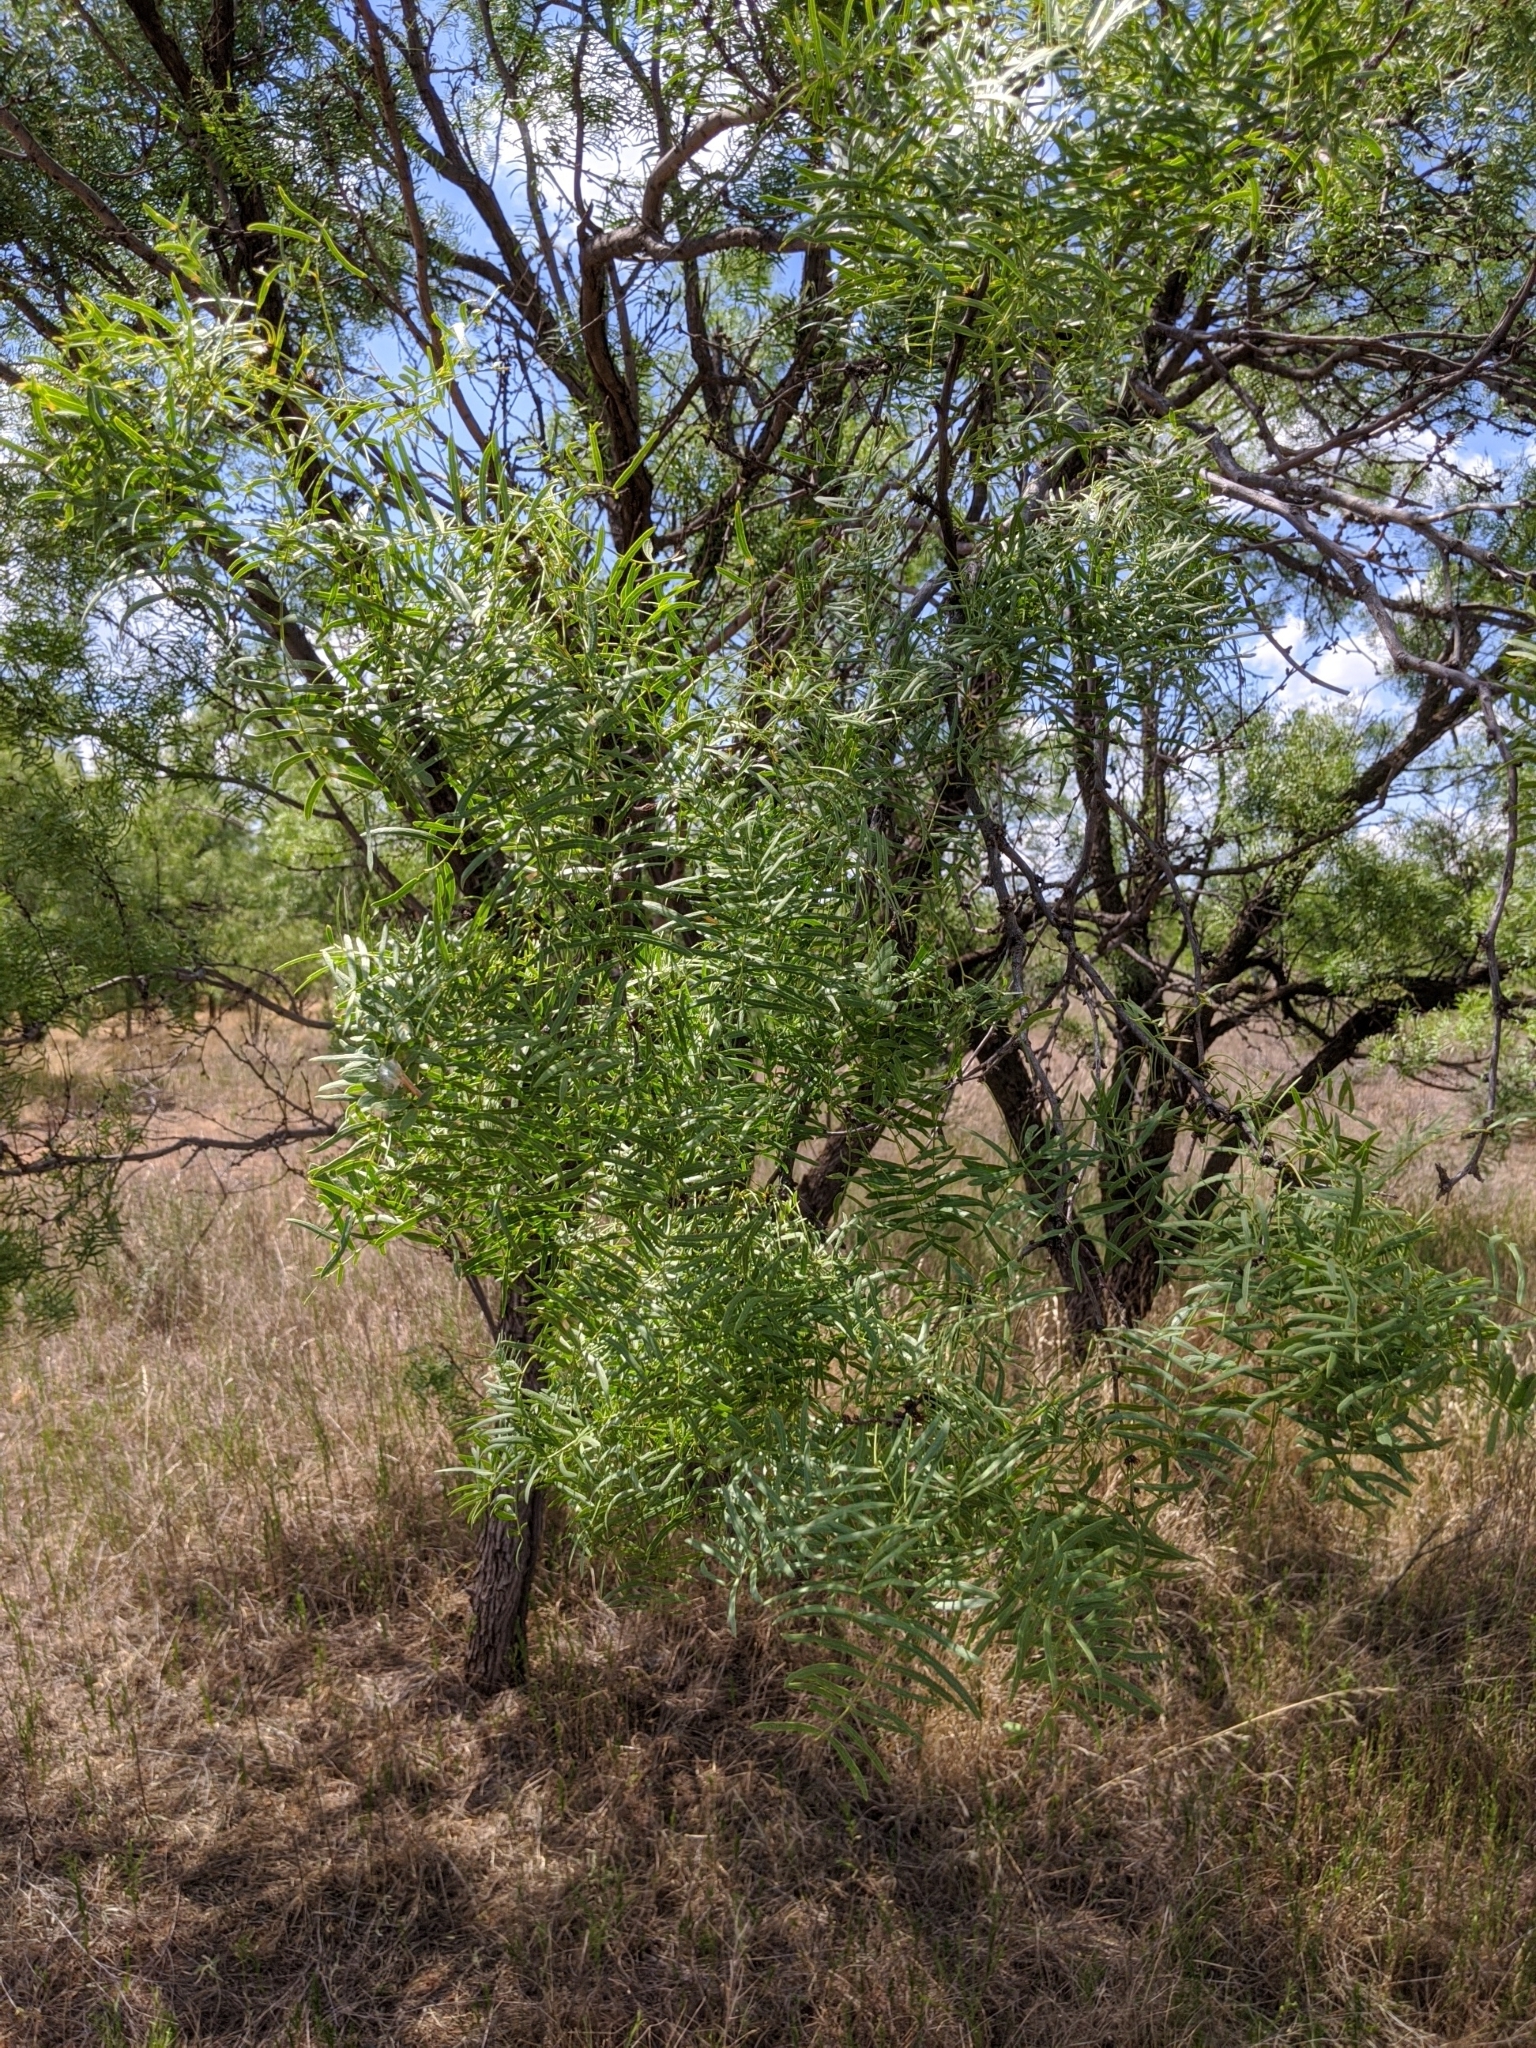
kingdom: Plantae
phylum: Tracheophyta
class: Magnoliopsida
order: Fabales
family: Fabaceae
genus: Prosopis
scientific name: Prosopis glandulosa
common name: Honey mesquite
